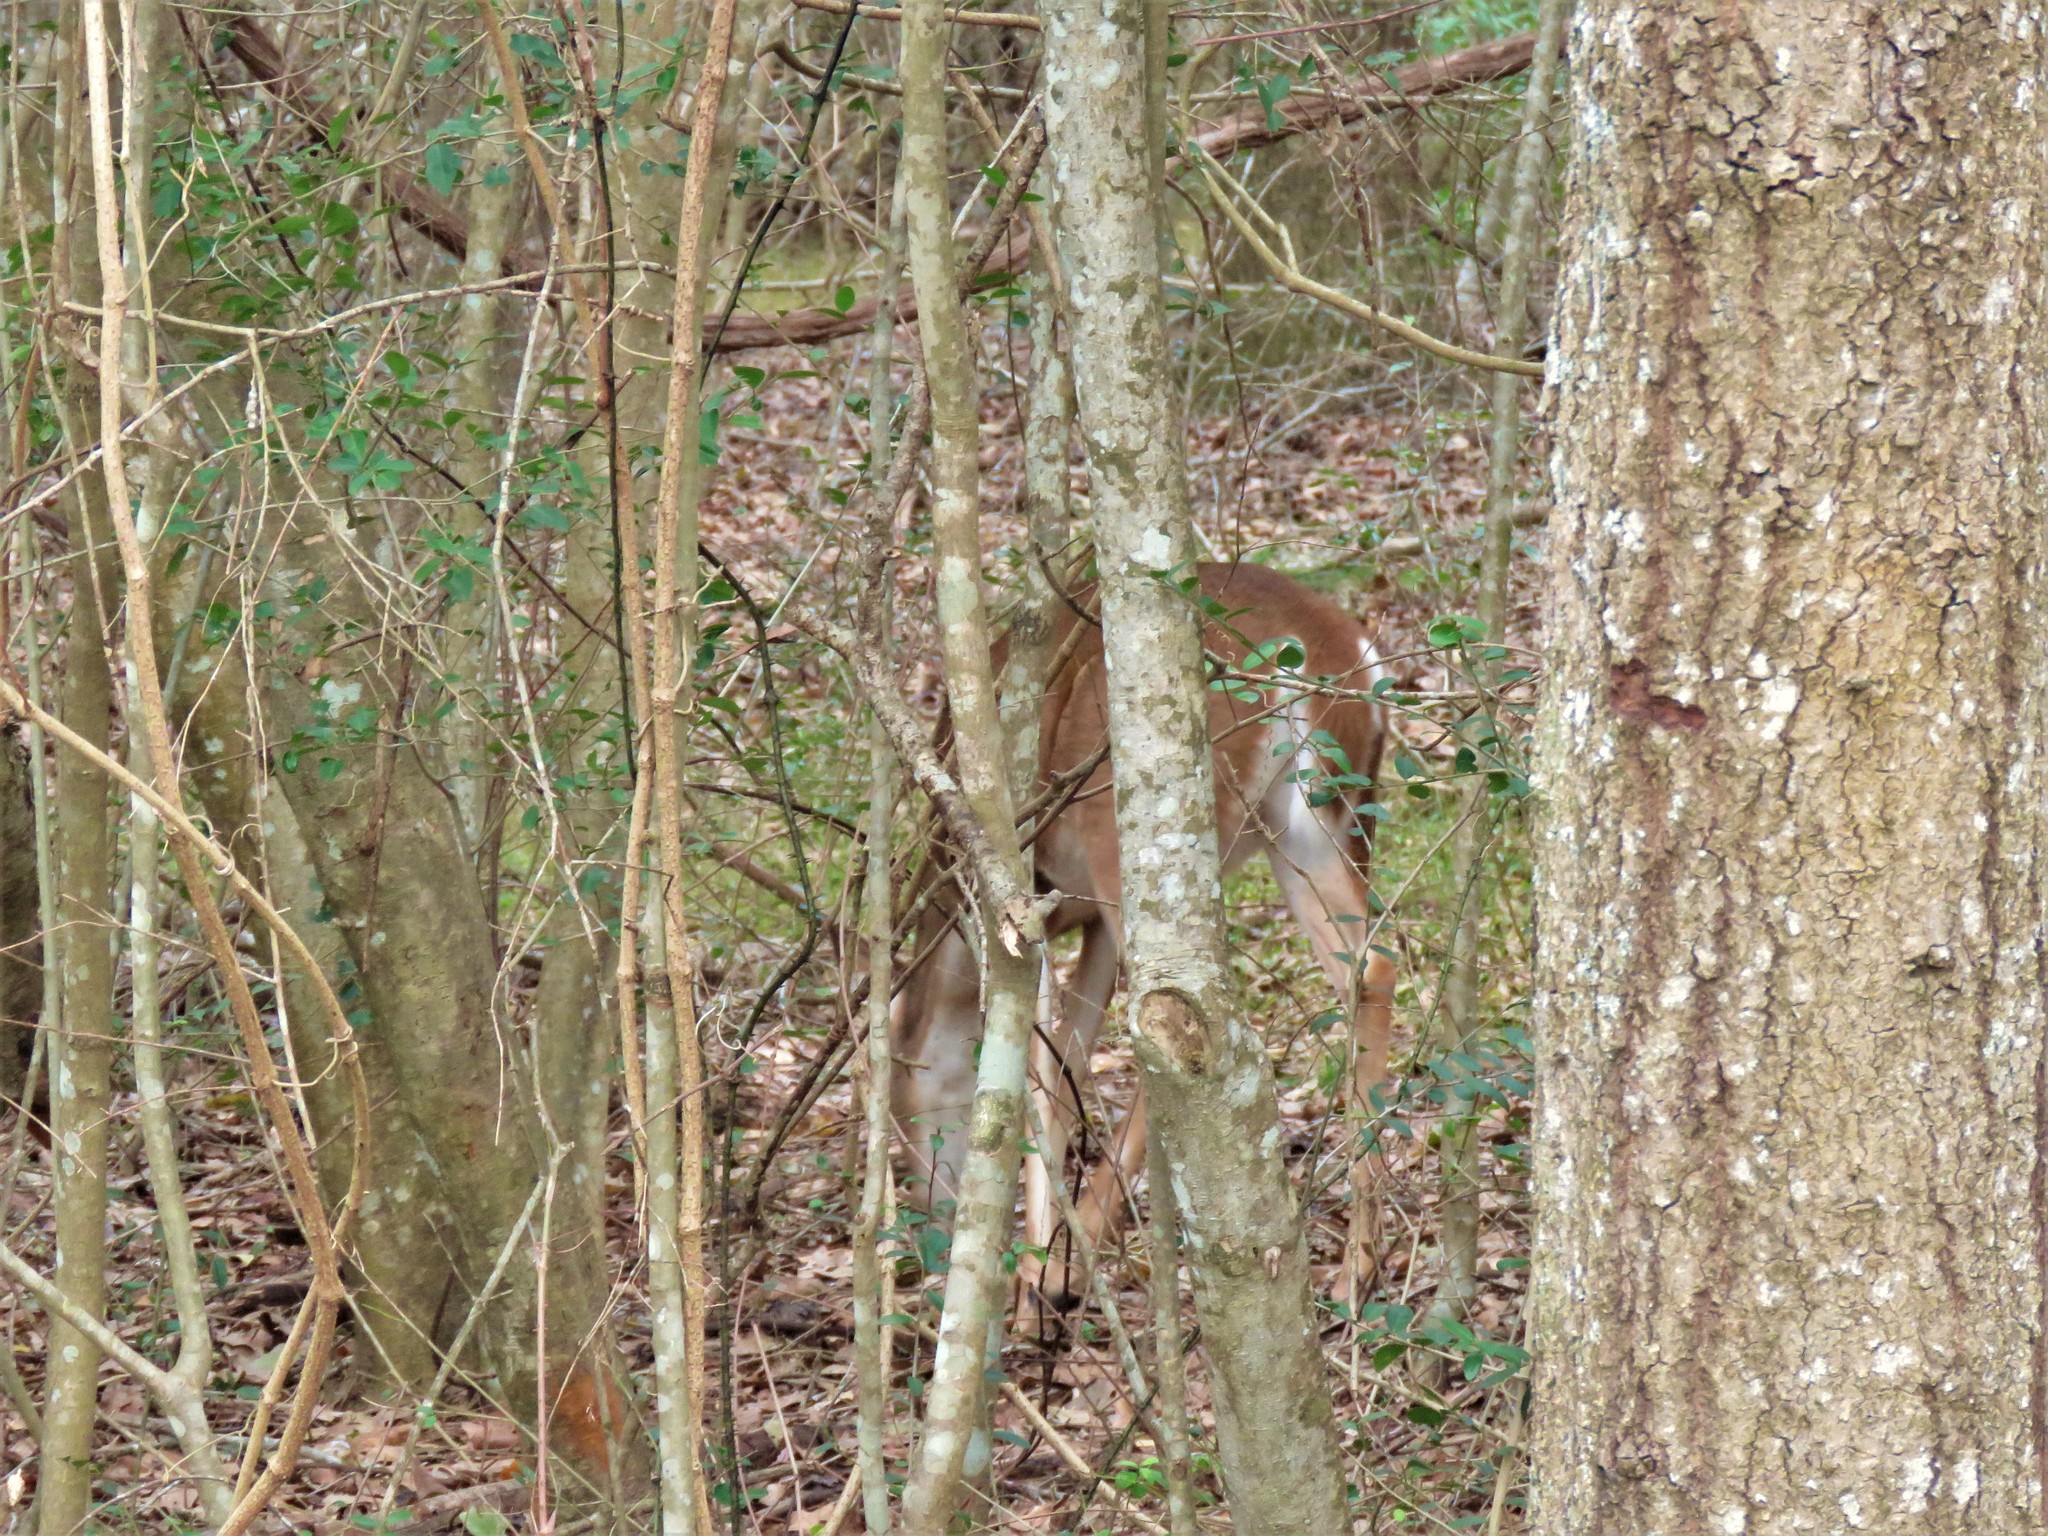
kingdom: Animalia
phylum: Chordata
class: Mammalia
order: Artiodactyla
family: Cervidae
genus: Odocoileus
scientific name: Odocoileus virginianus
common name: White-tailed deer
